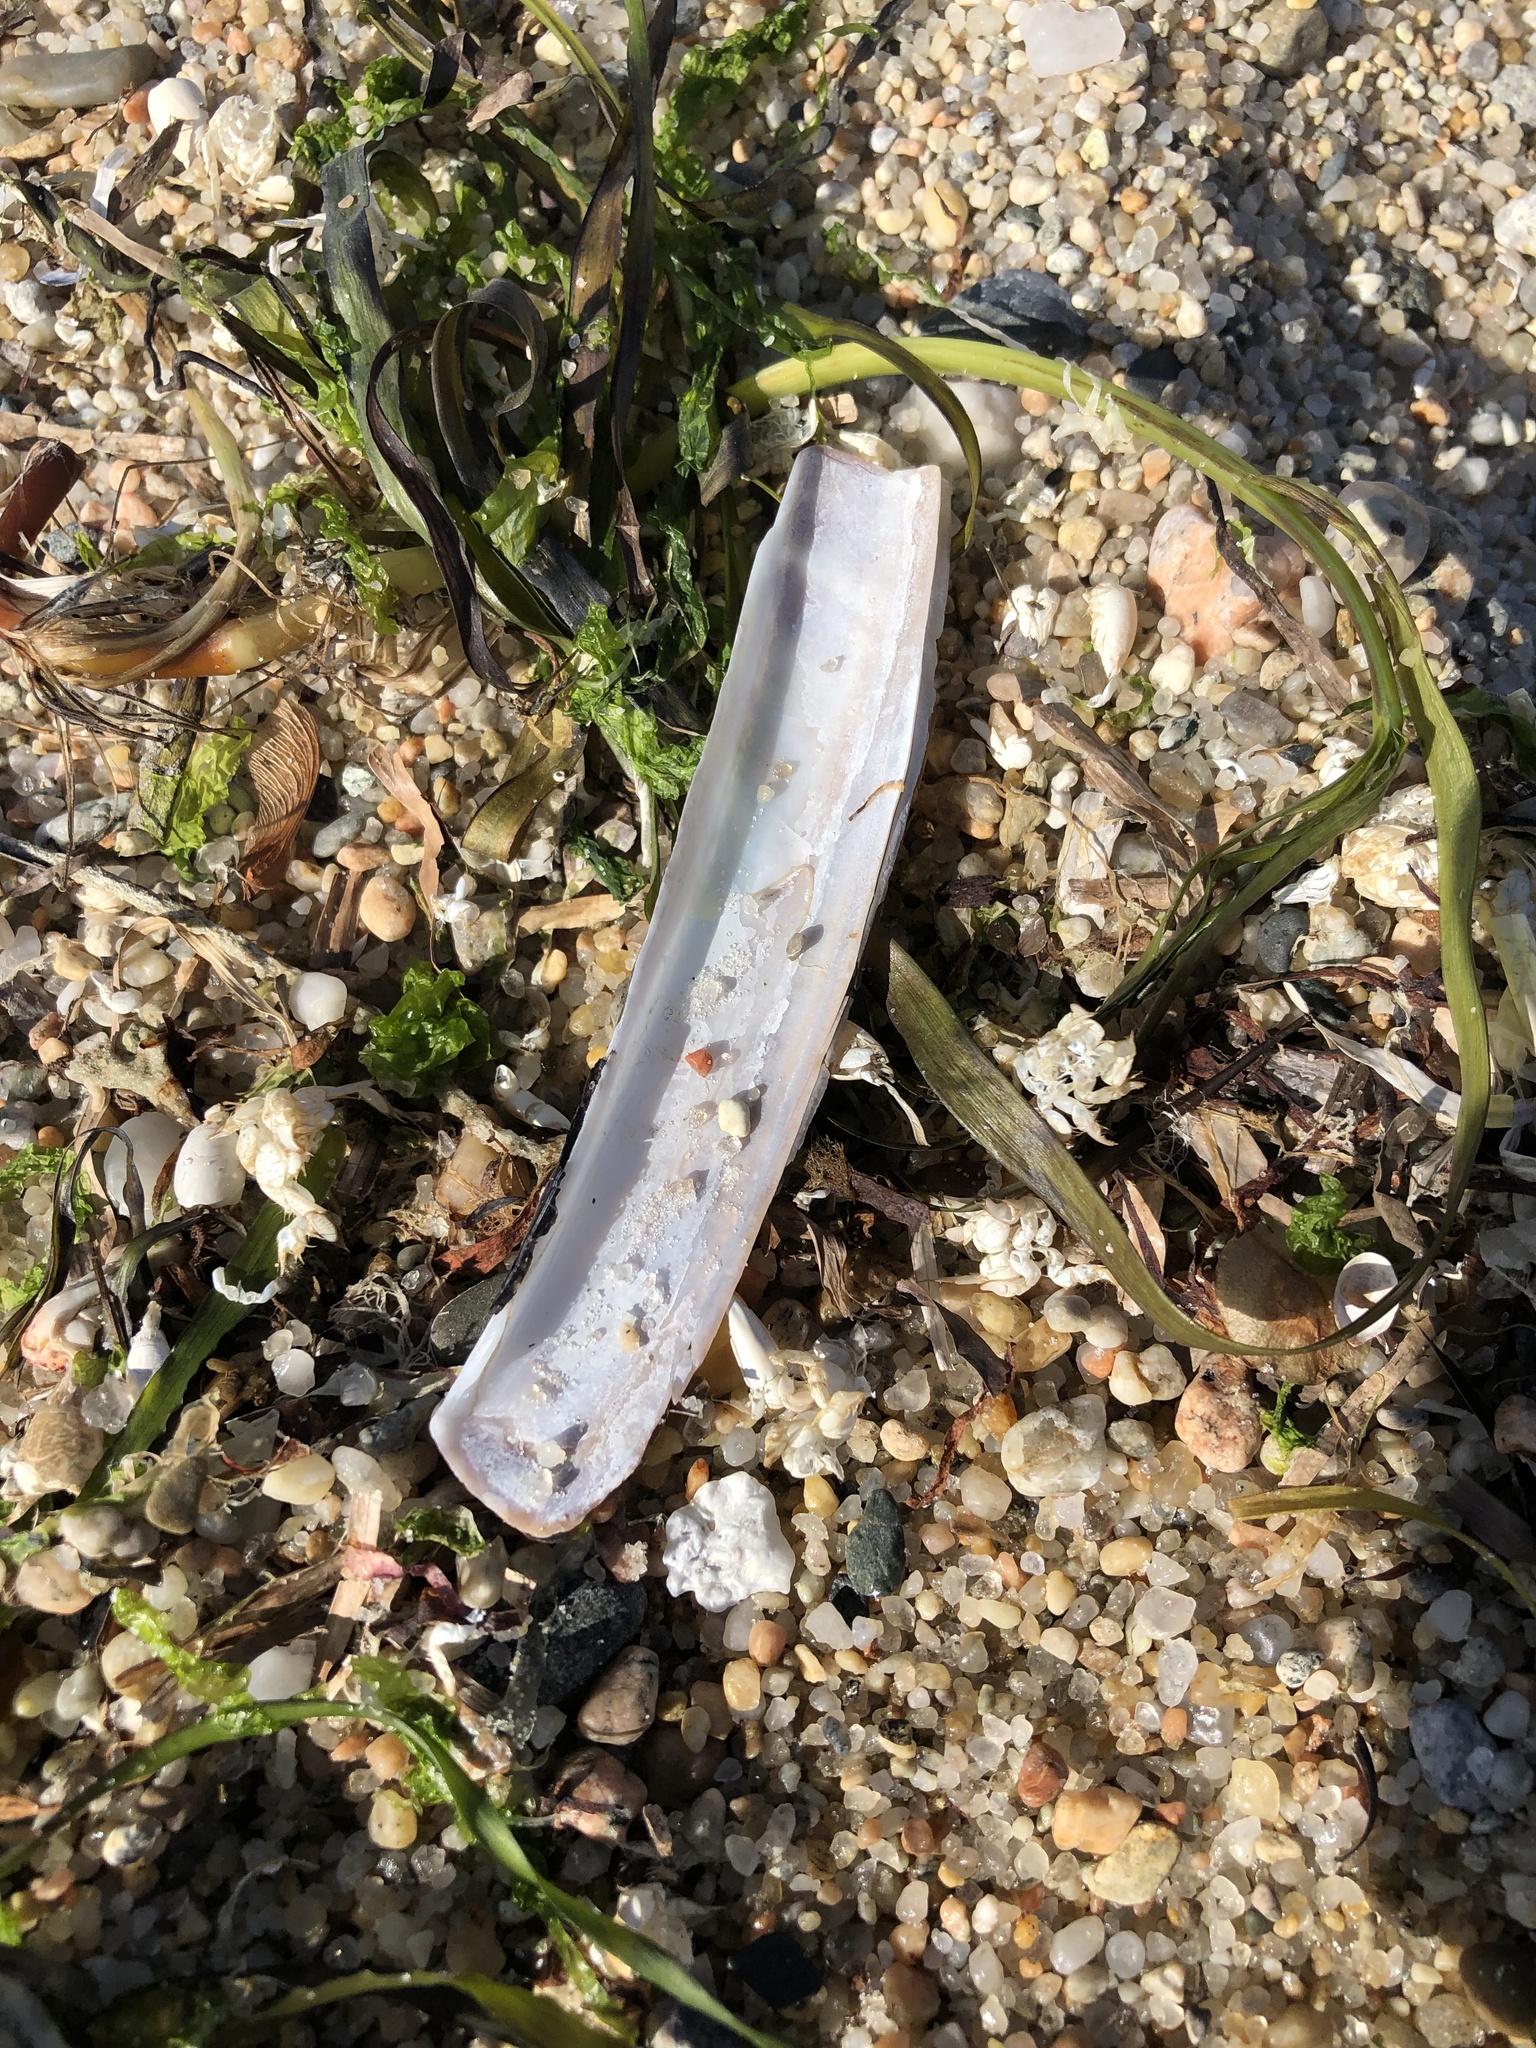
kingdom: Animalia
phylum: Mollusca
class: Bivalvia
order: Adapedonta
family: Pharidae
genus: Ensis
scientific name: Ensis leei
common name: American jack knife clam
